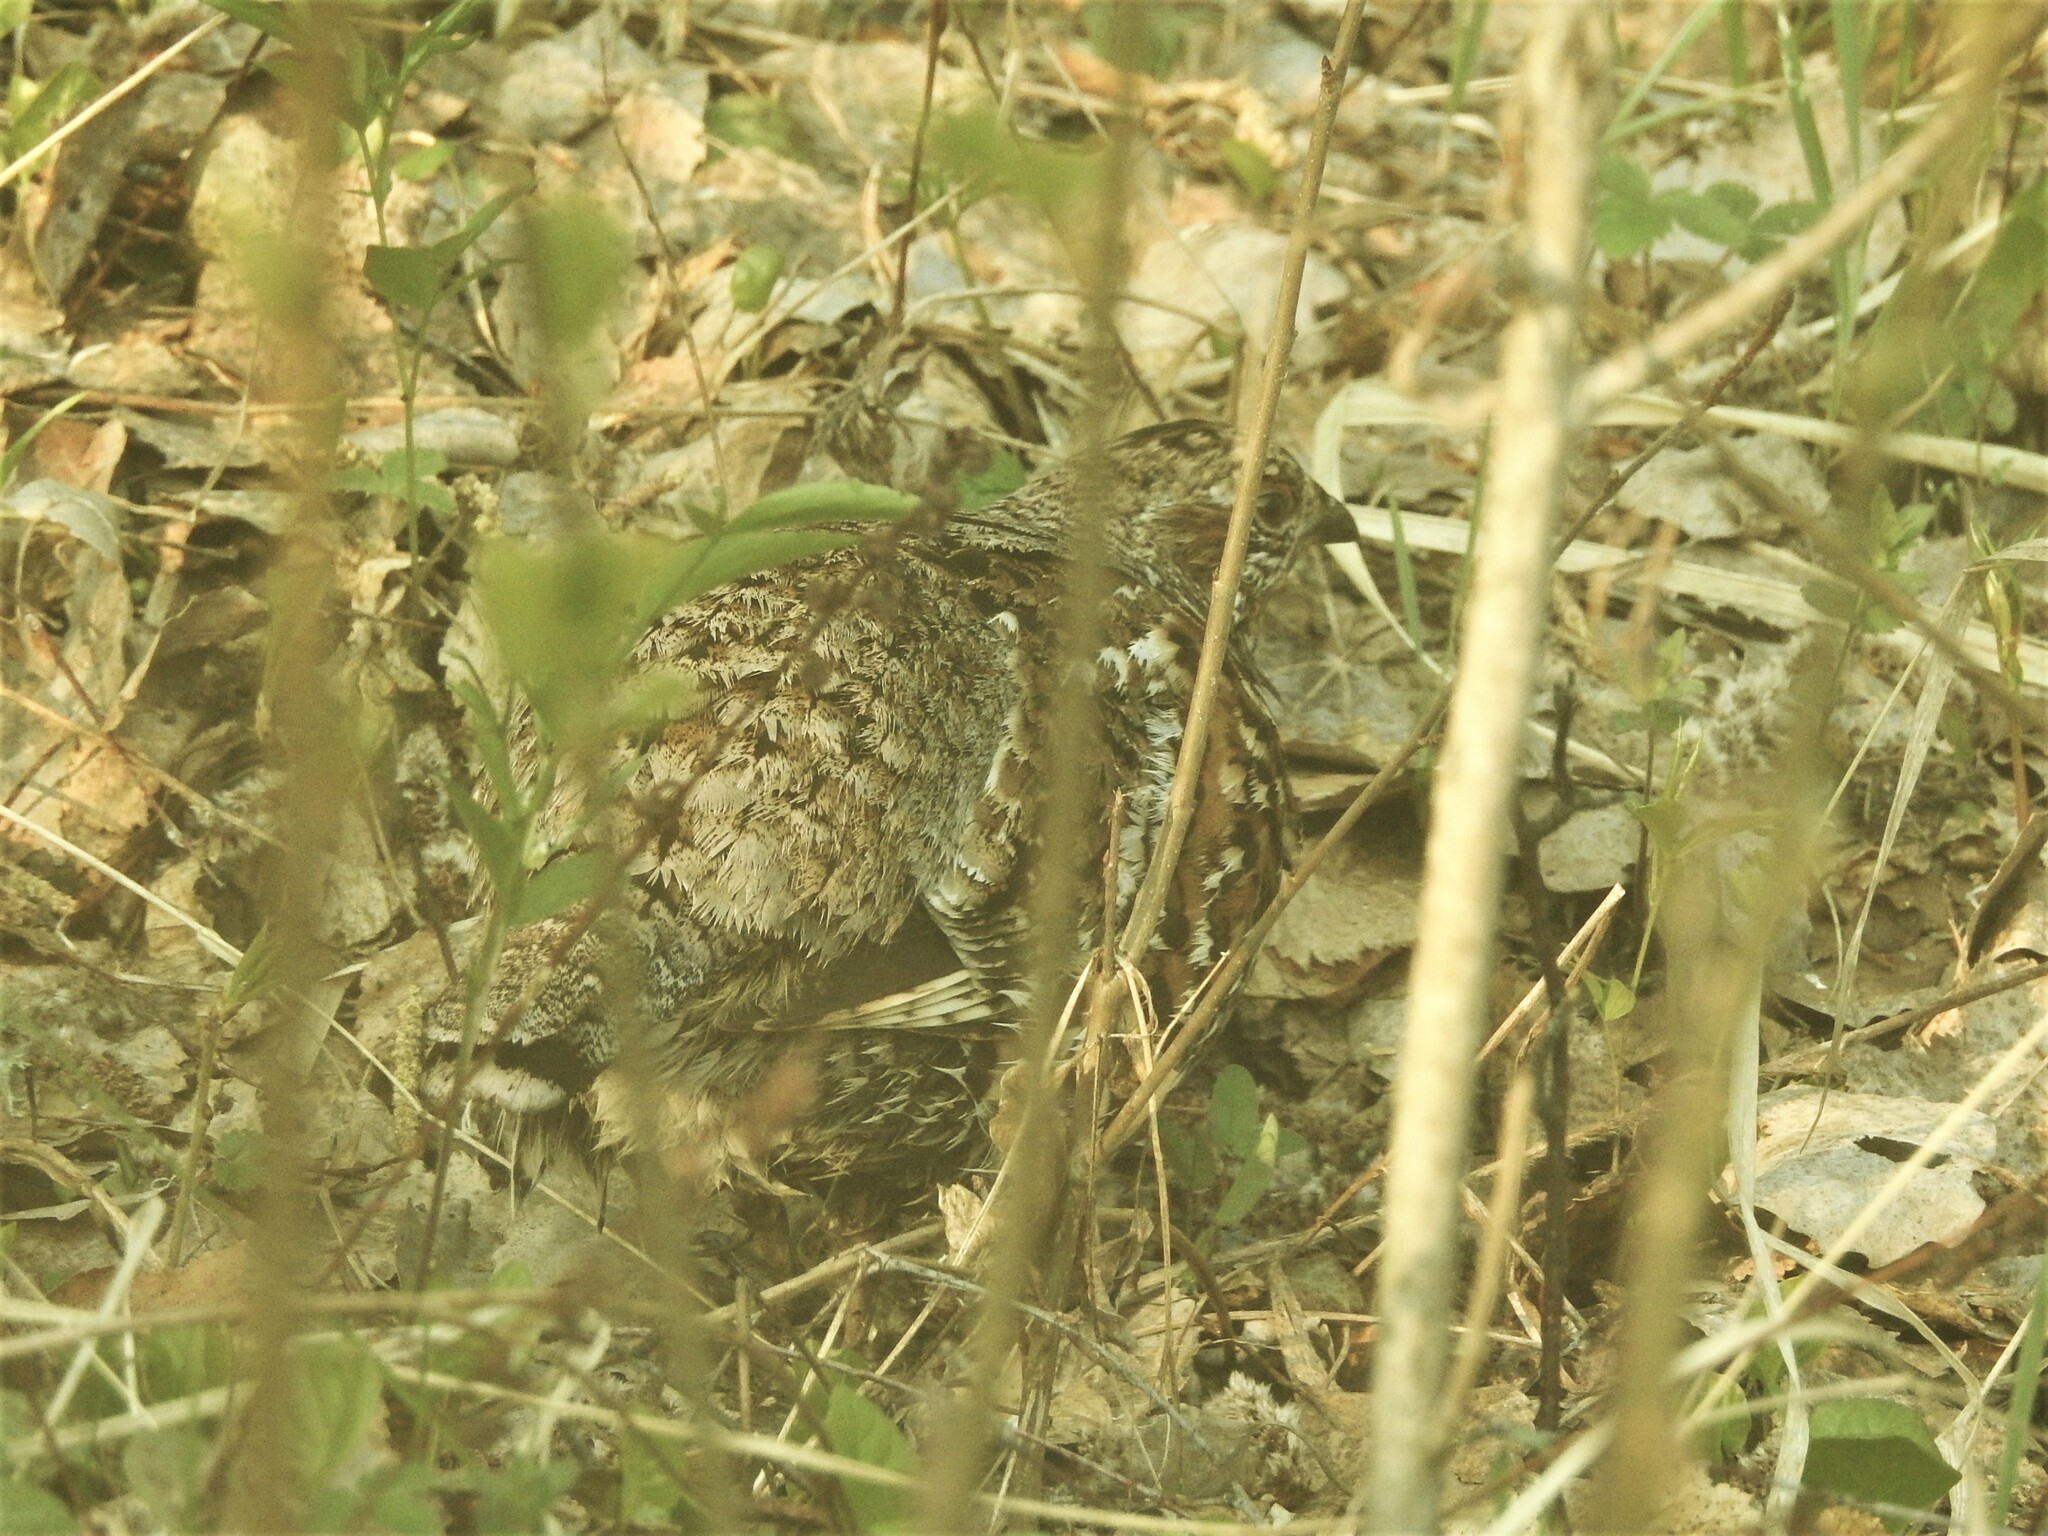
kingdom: Animalia
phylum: Chordata
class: Aves
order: Galliformes
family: Phasianidae
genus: Tetrastes
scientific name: Tetrastes bonasia
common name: Hazel grouse
